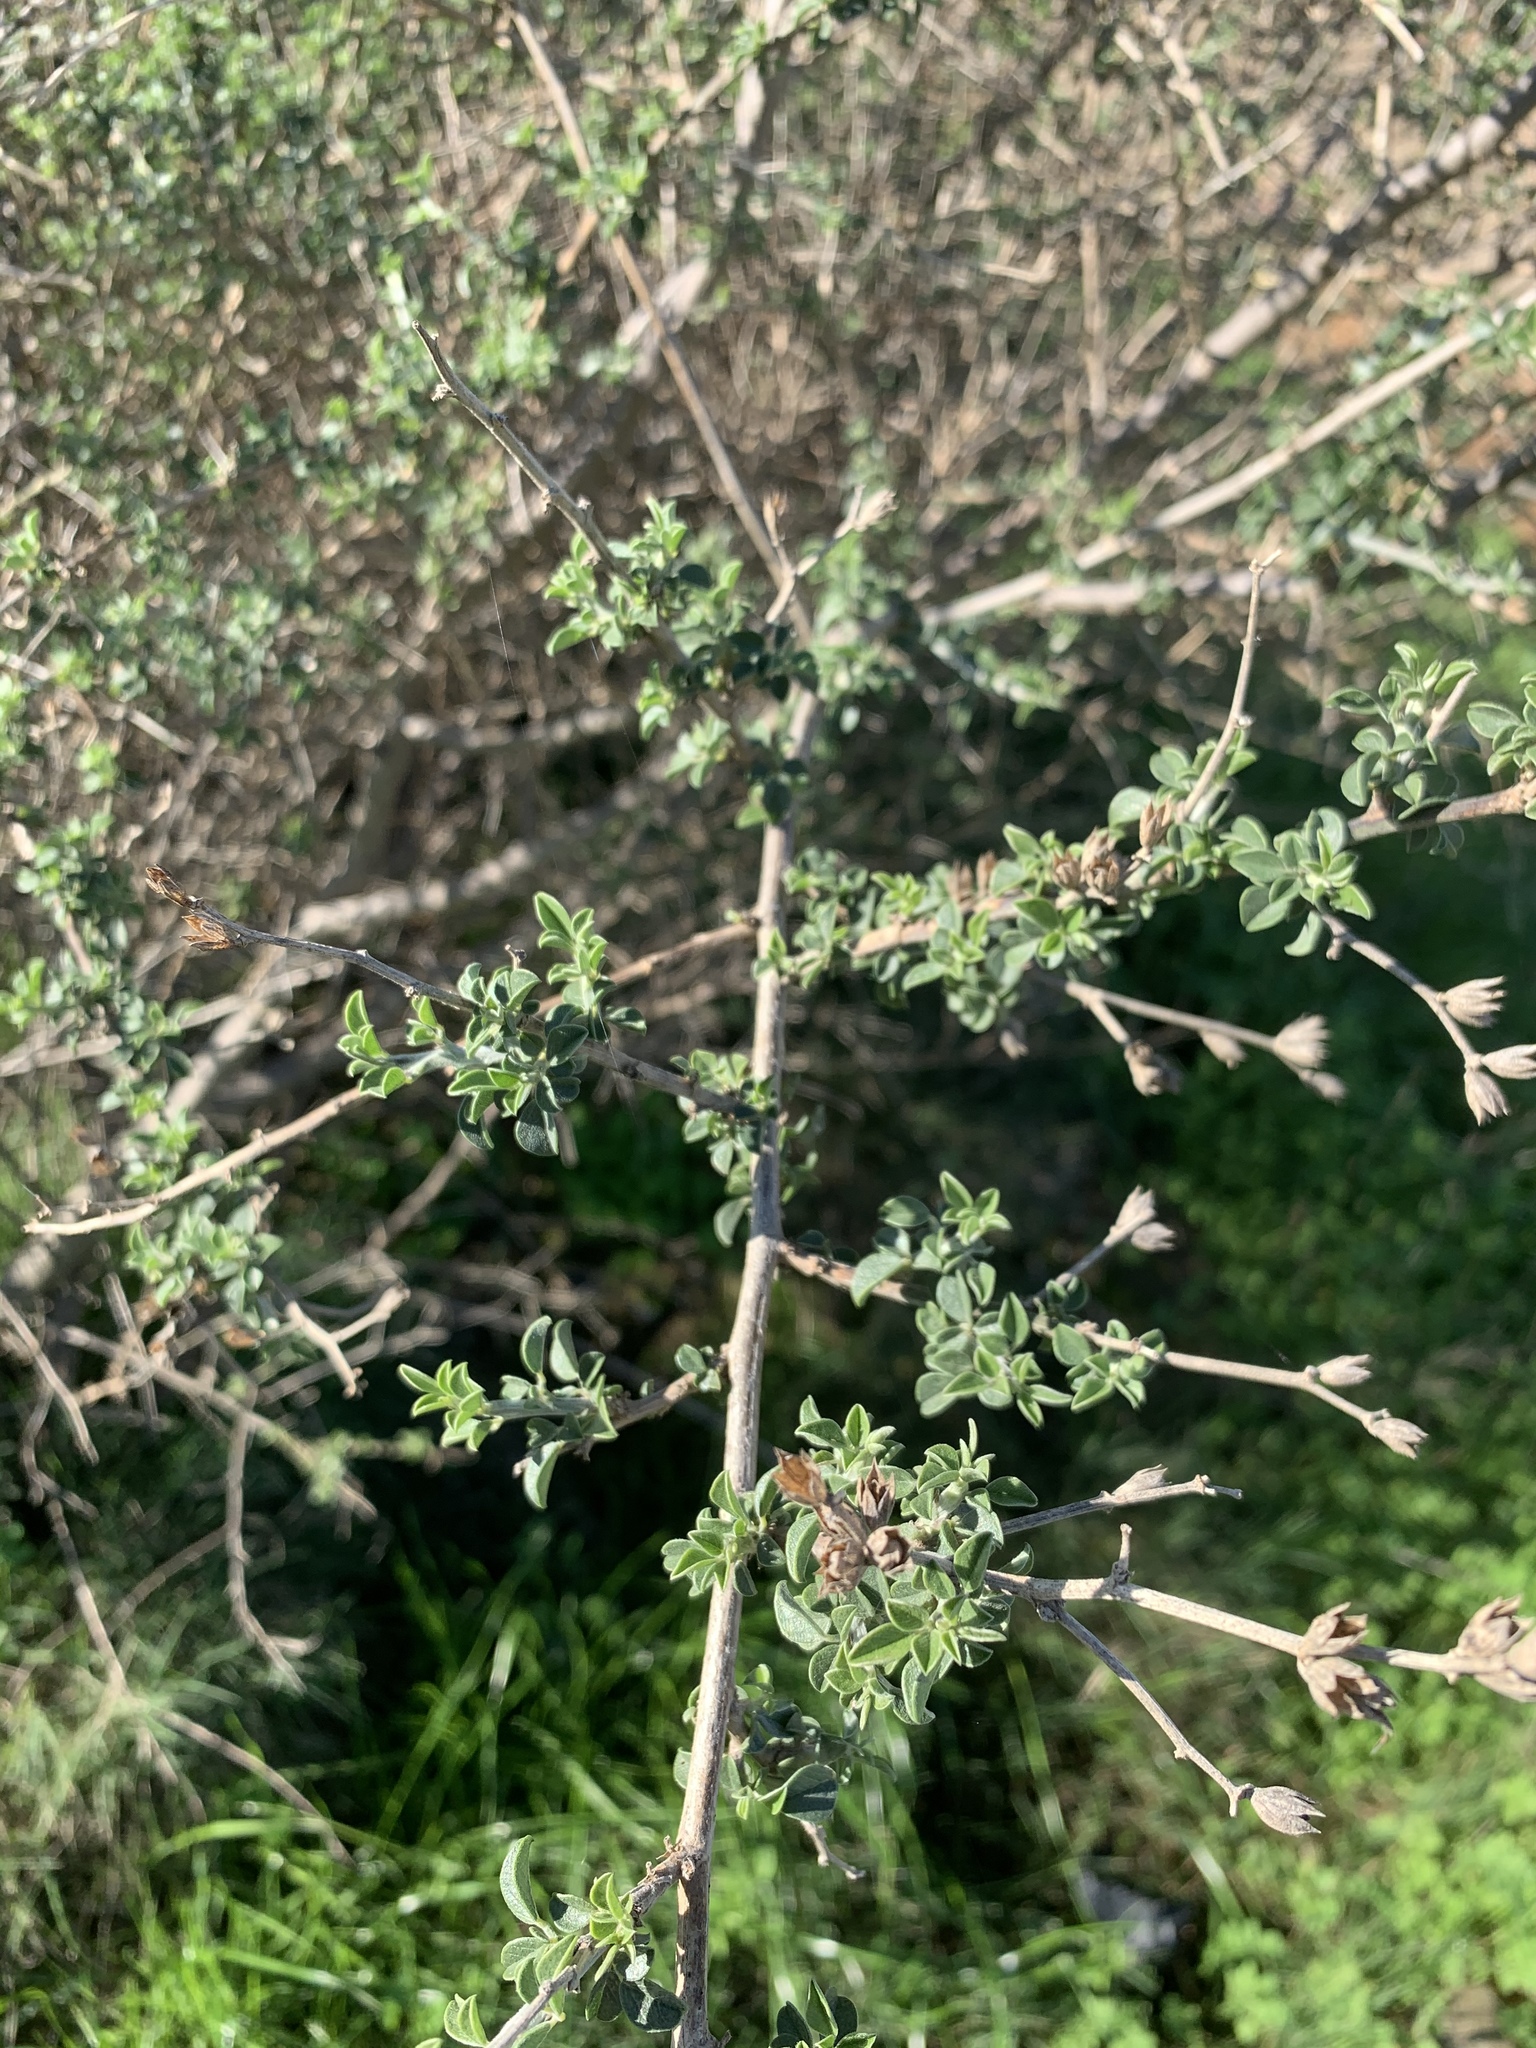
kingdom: Plantae
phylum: Tracheophyta
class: Magnoliopsida
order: Fabales
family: Fabaceae
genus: Psoralea
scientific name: Psoralea hirta
